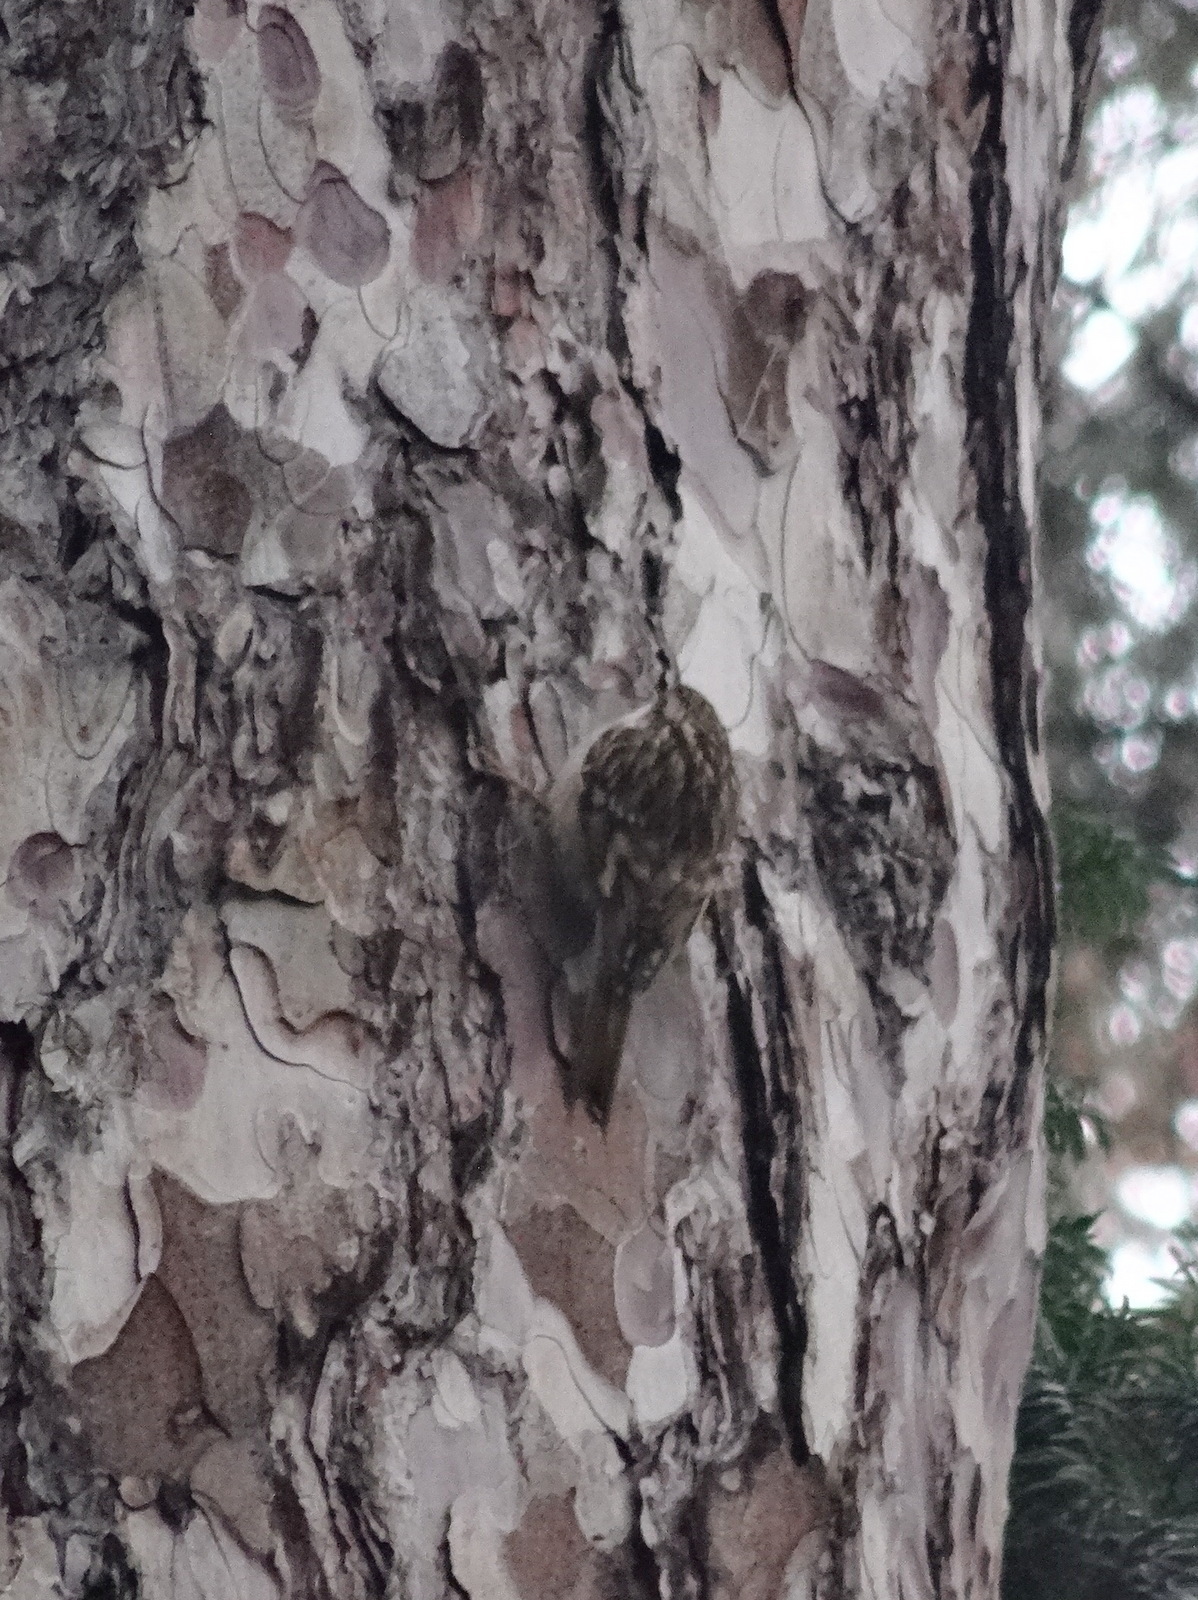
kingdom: Animalia
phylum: Chordata
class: Aves
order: Passeriformes
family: Certhiidae
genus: Certhia
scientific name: Certhia brachydactyla
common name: Short-toed treecreeper
